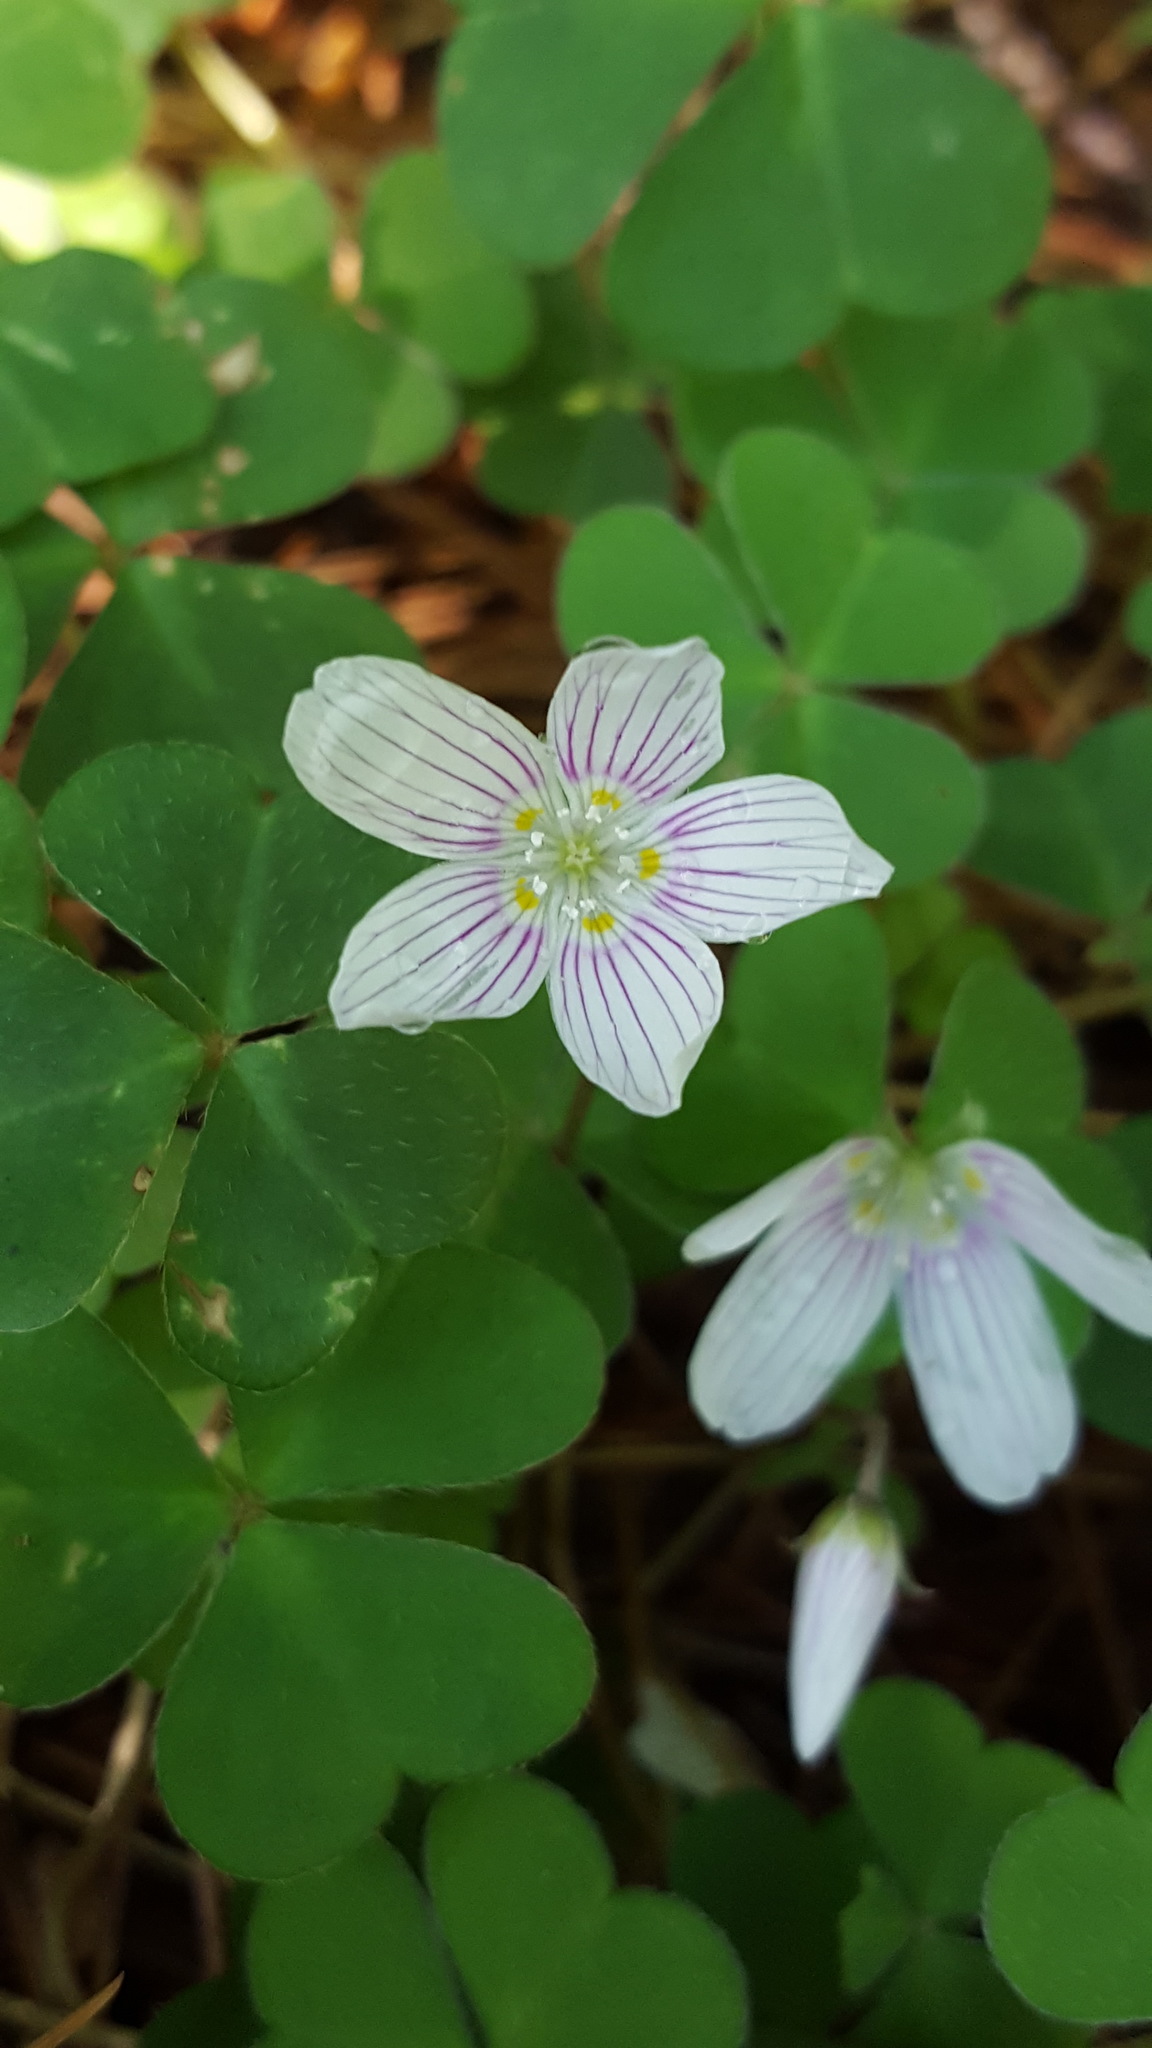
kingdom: Plantae
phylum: Tracheophyta
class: Magnoliopsida
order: Oxalidales
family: Oxalidaceae
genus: Oxalis
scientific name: Oxalis montana
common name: American wood-sorrel
